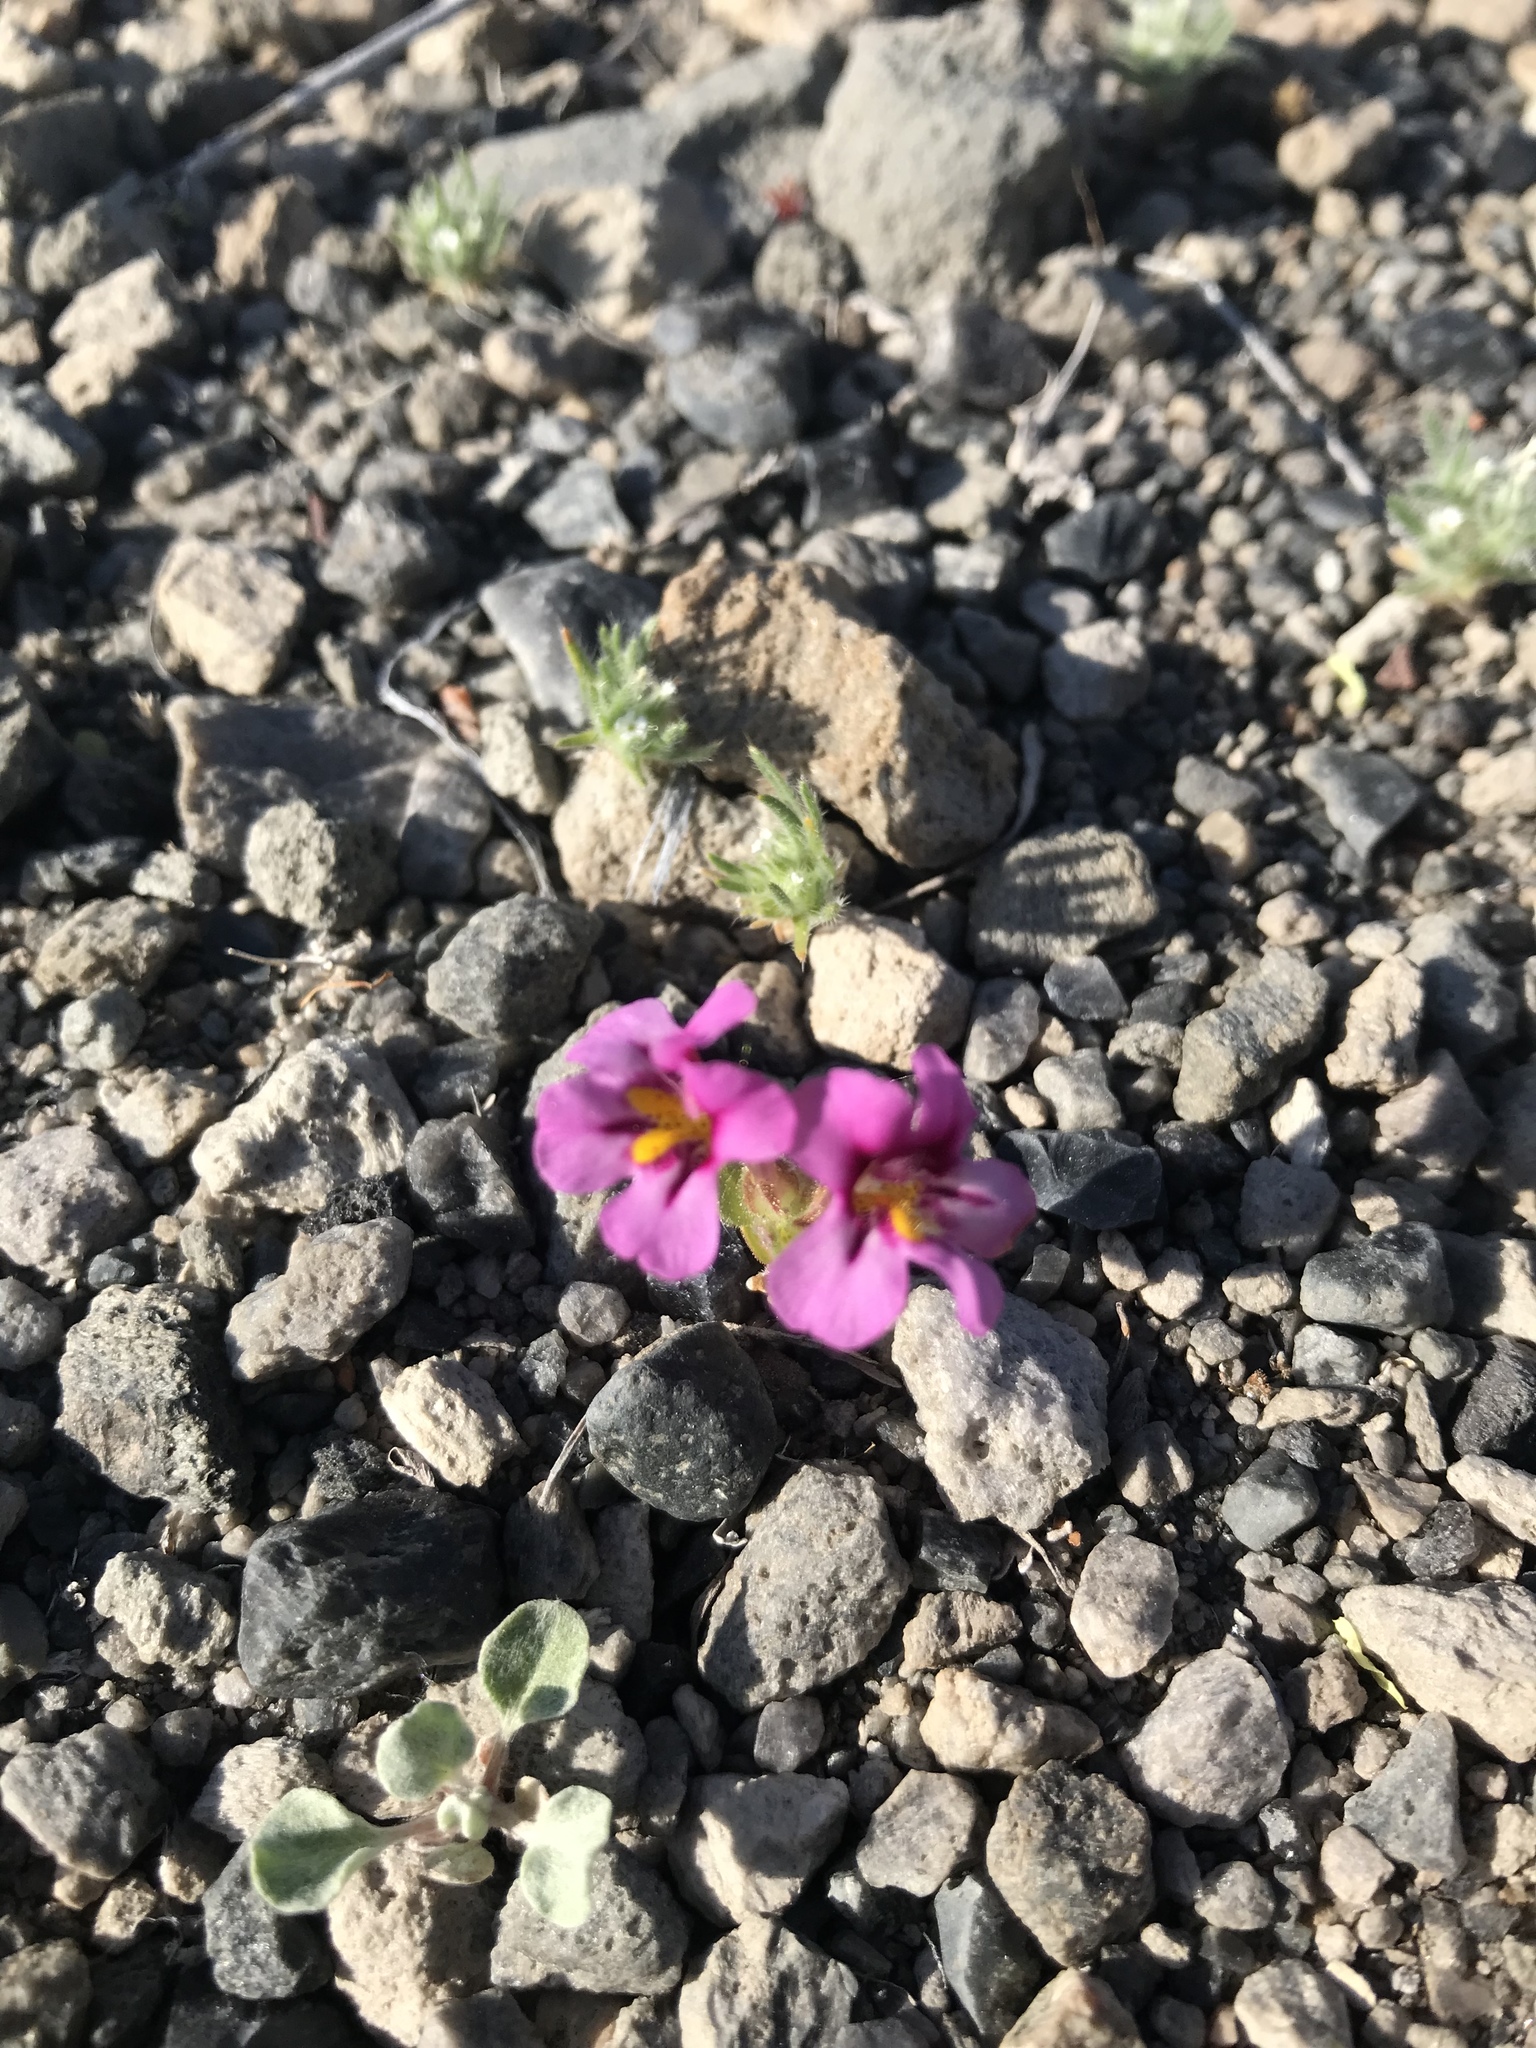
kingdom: Plantae
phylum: Tracheophyta
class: Magnoliopsida
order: Lamiales
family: Phrymaceae
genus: Diplacus
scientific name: Diplacus nanus
